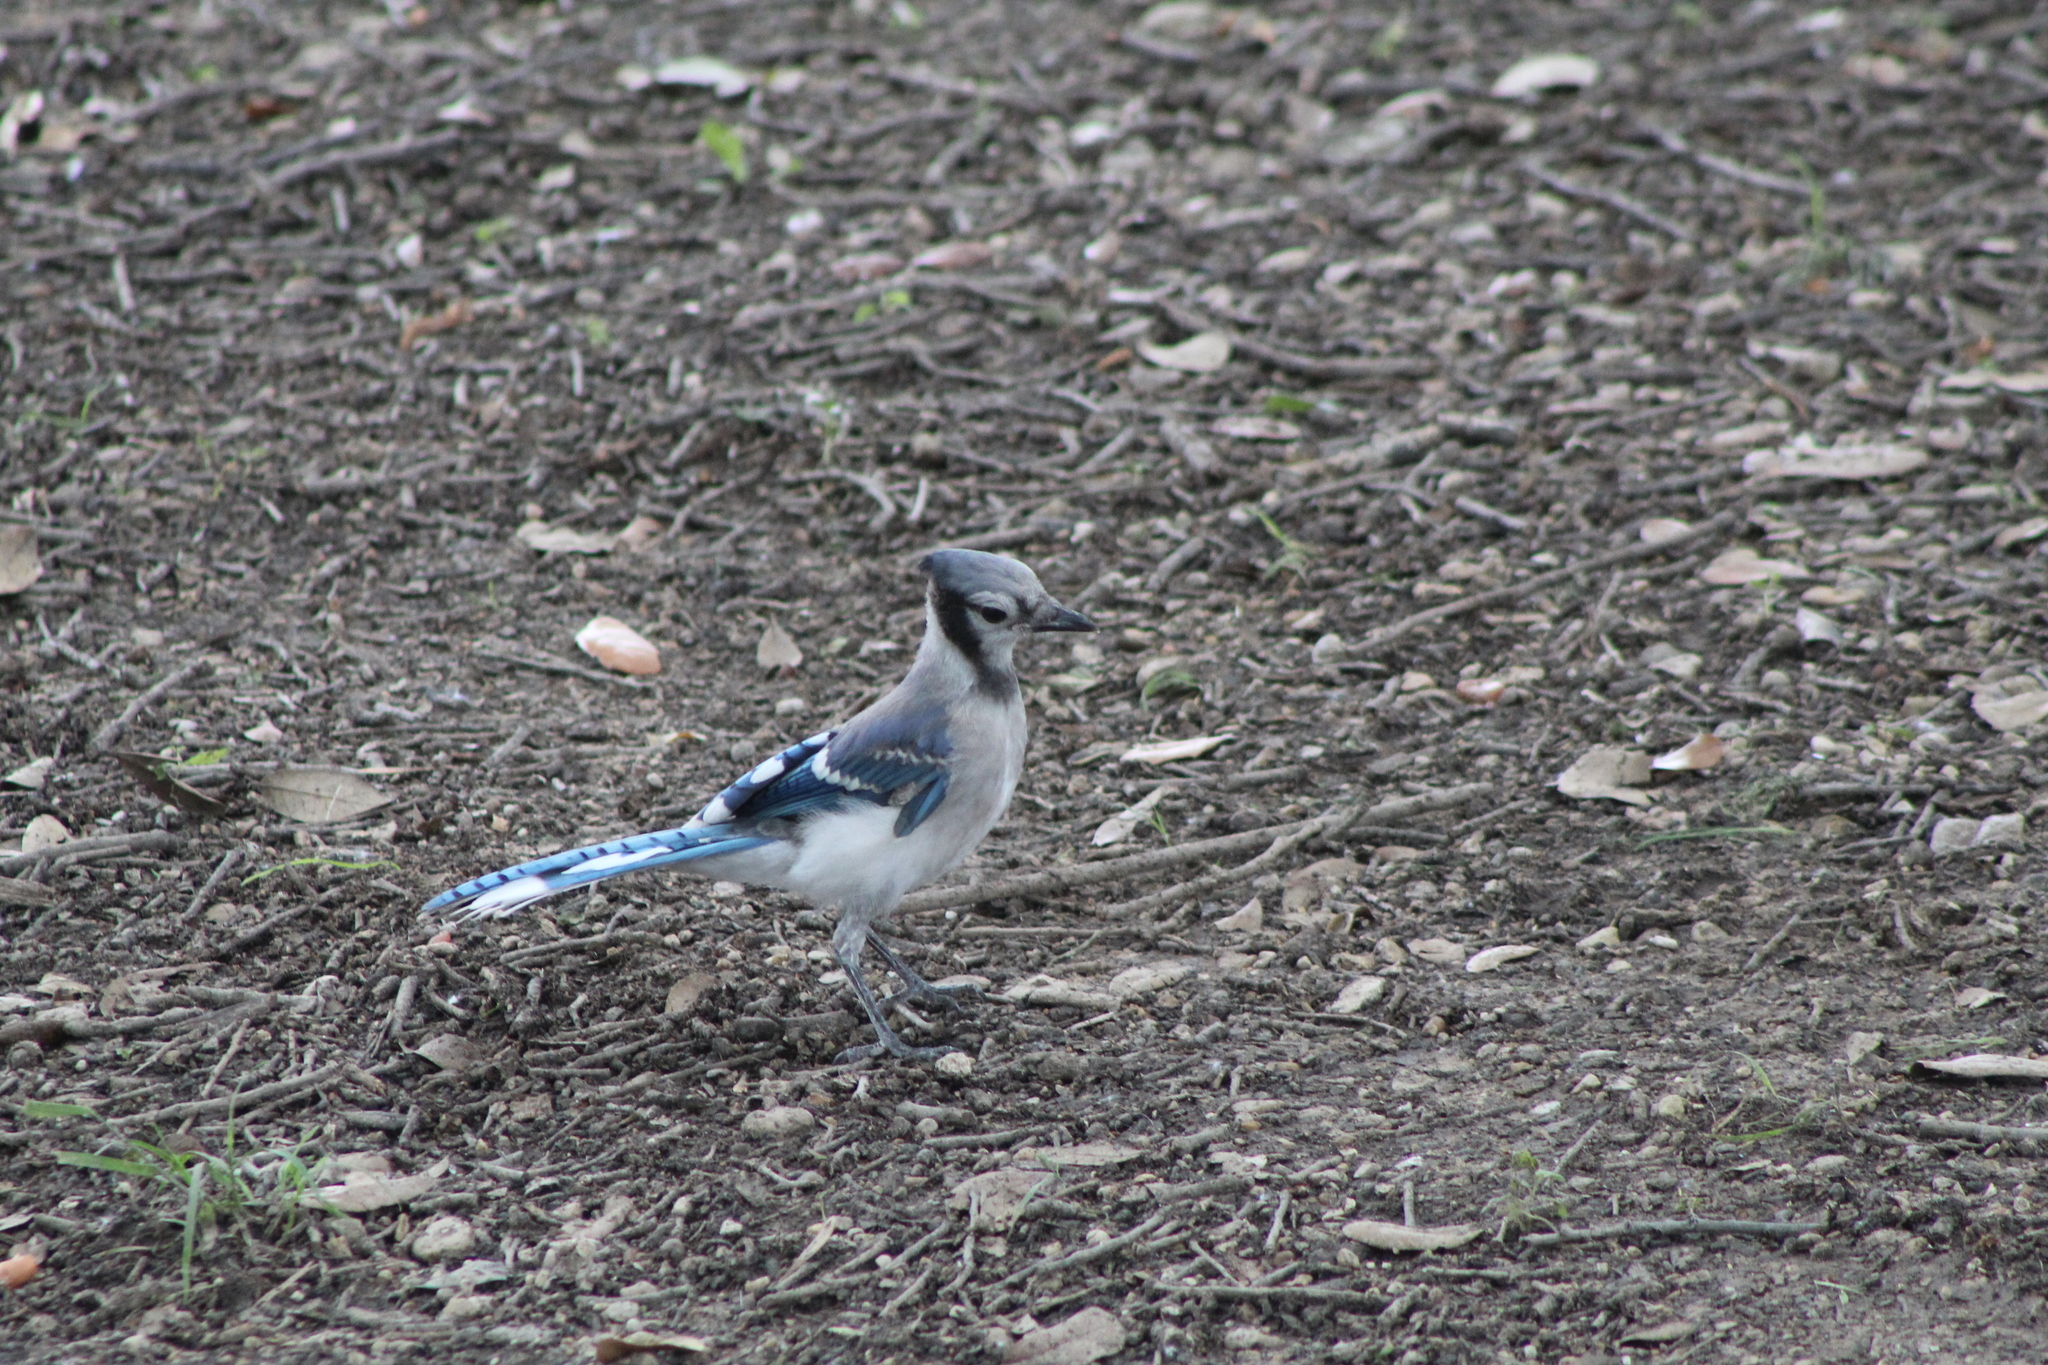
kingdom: Animalia
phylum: Chordata
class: Aves
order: Passeriformes
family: Corvidae
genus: Cyanocitta
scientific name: Cyanocitta cristata
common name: Blue jay
